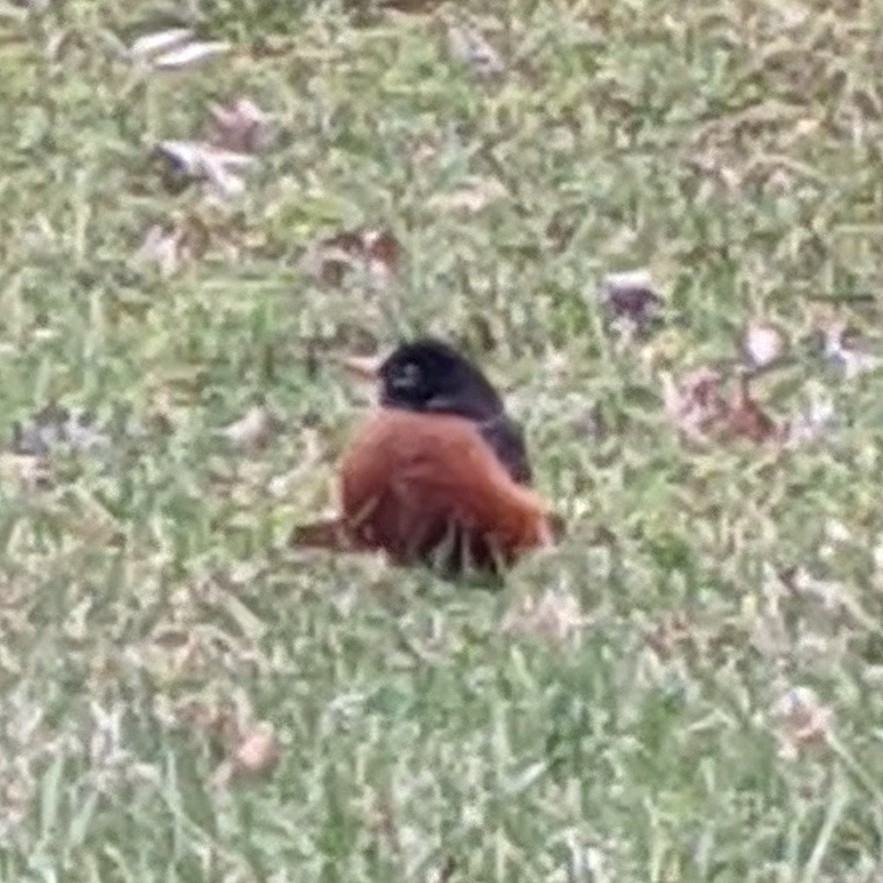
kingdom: Animalia
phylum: Chordata
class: Aves
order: Passeriformes
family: Turdidae
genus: Turdus
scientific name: Turdus migratorius
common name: American robin
